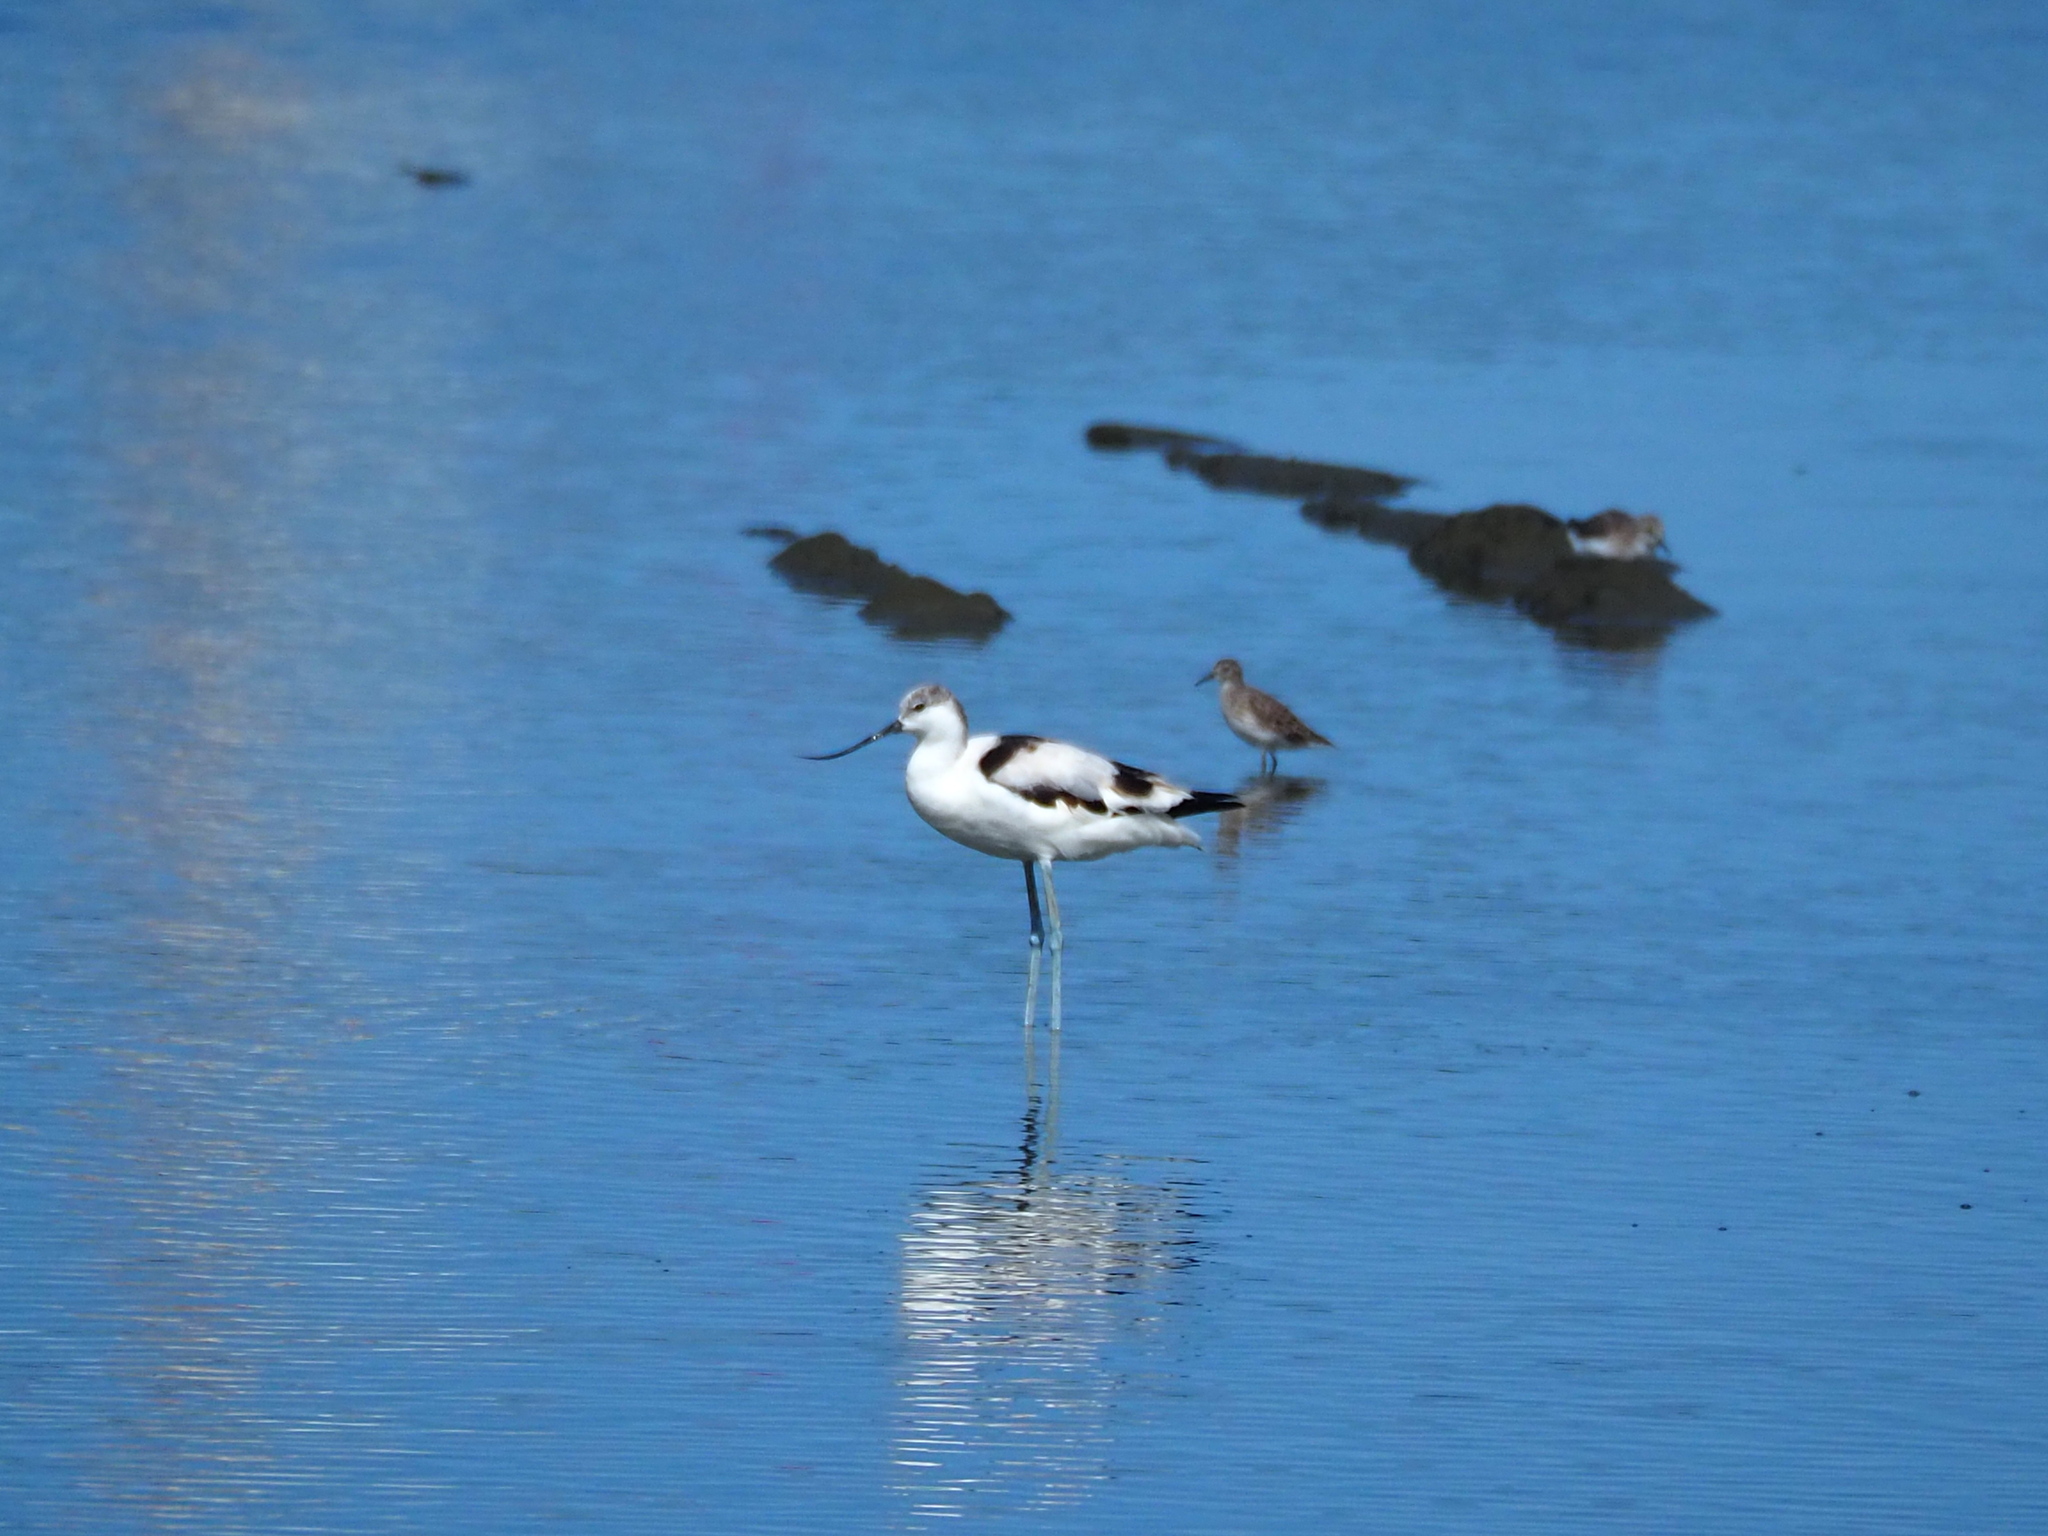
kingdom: Animalia
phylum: Chordata
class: Aves
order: Charadriiformes
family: Recurvirostridae
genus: Recurvirostra
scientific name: Recurvirostra avosetta
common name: Pied avocet
